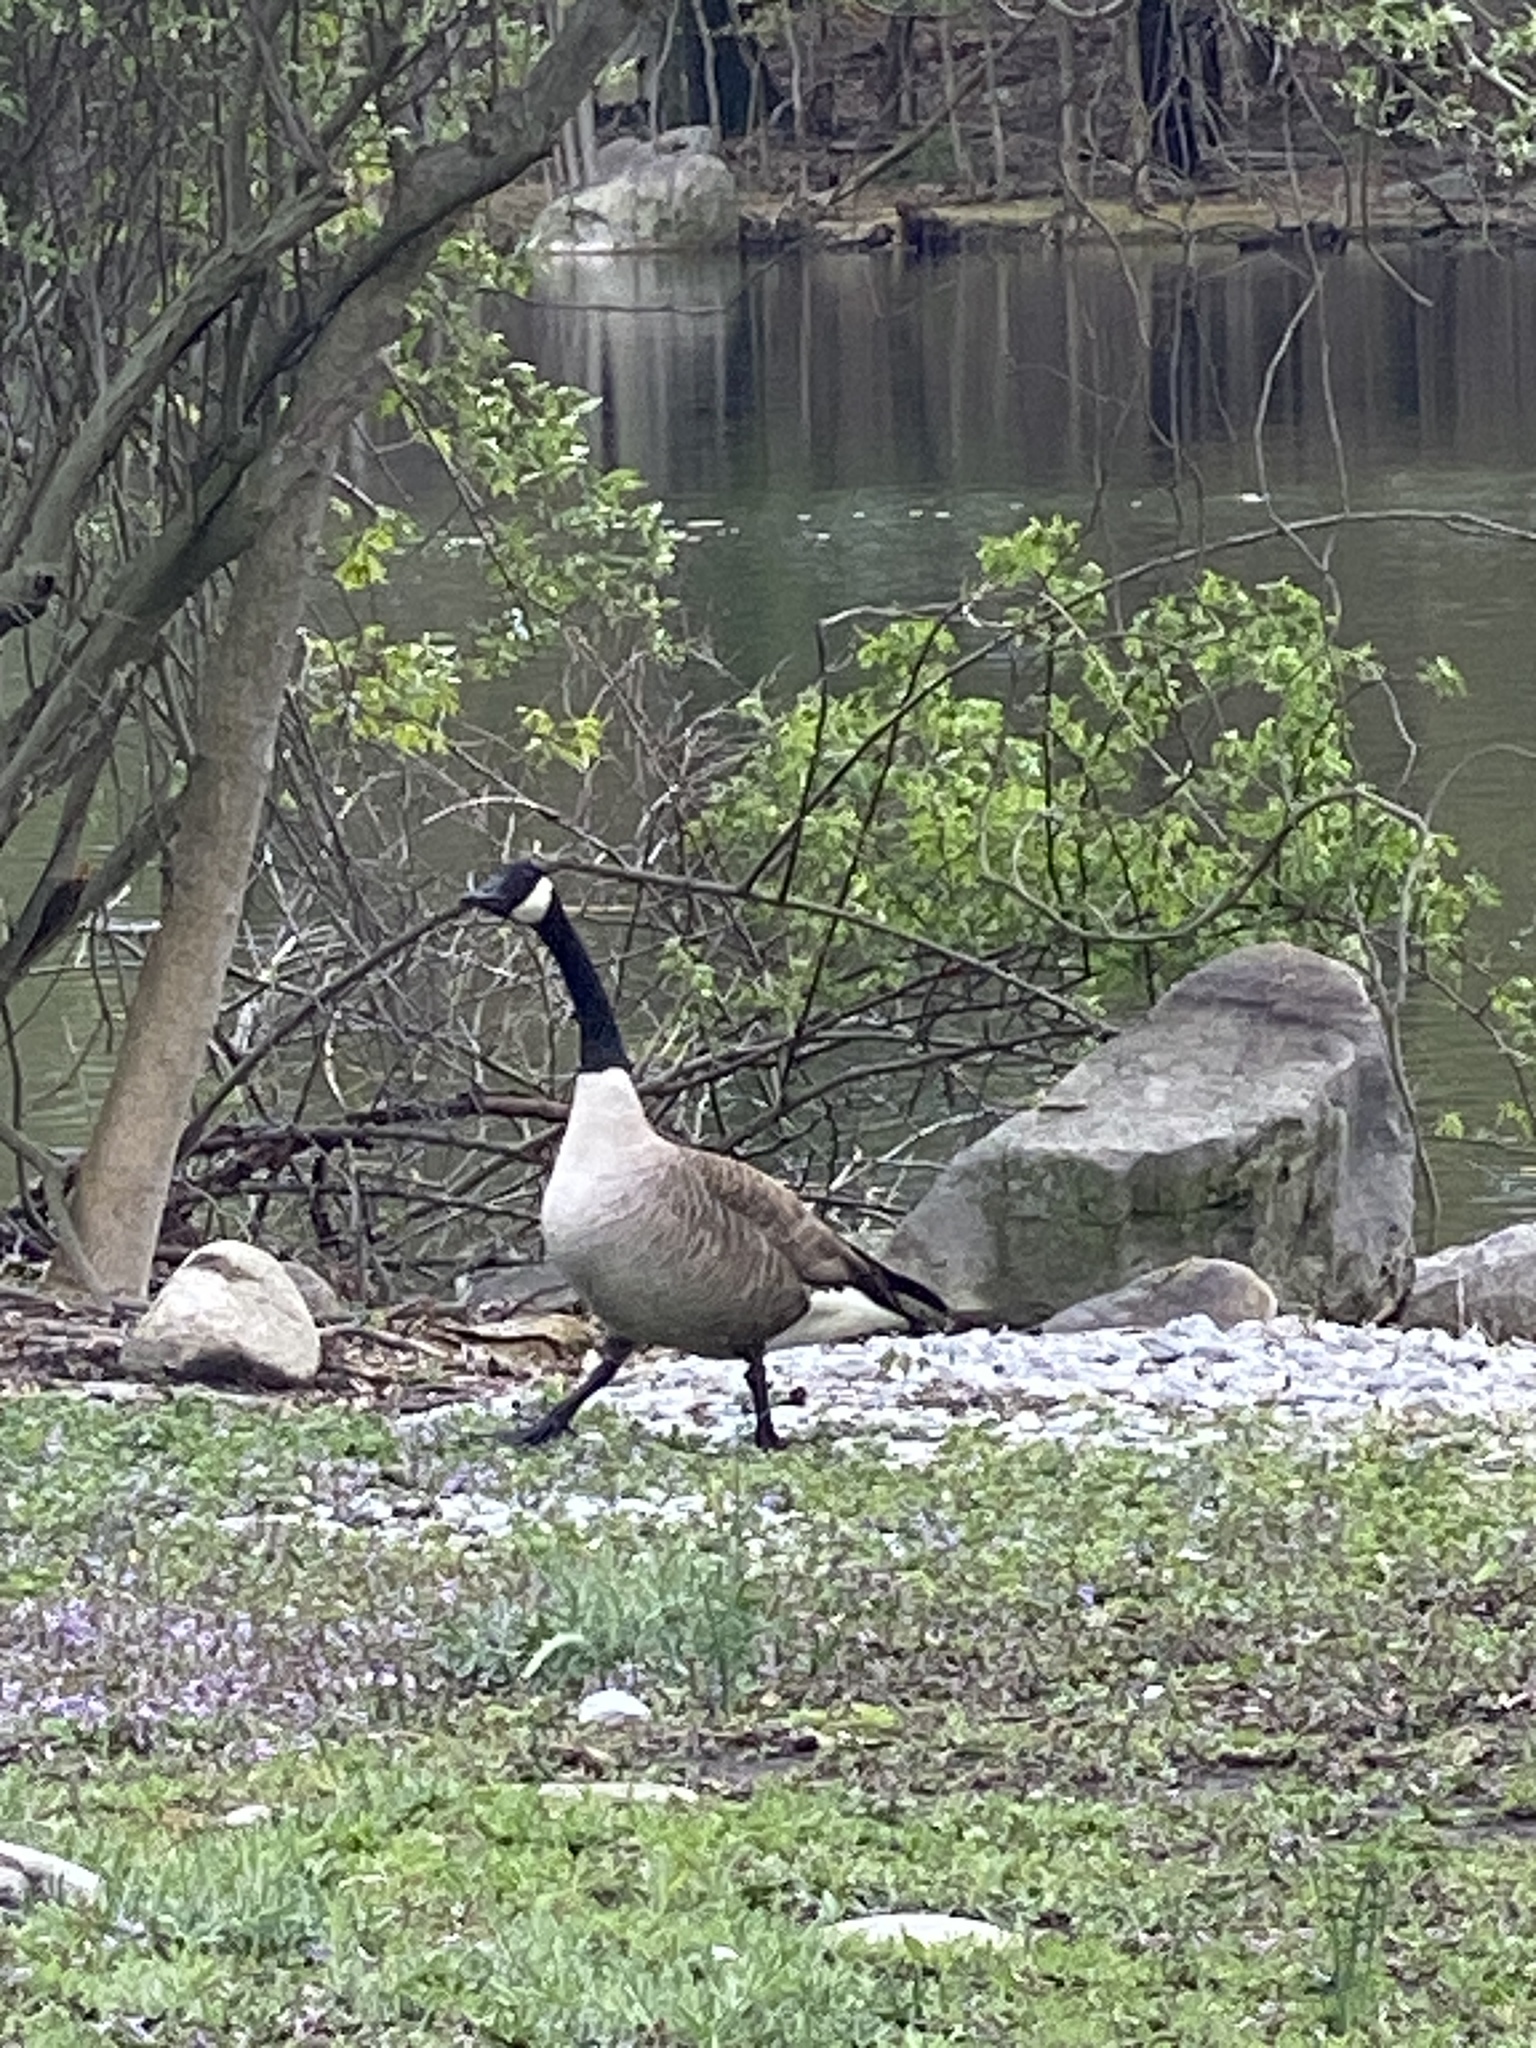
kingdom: Animalia
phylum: Chordata
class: Aves
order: Anseriformes
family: Anatidae
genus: Branta
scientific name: Branta canadensis
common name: Canada goose
